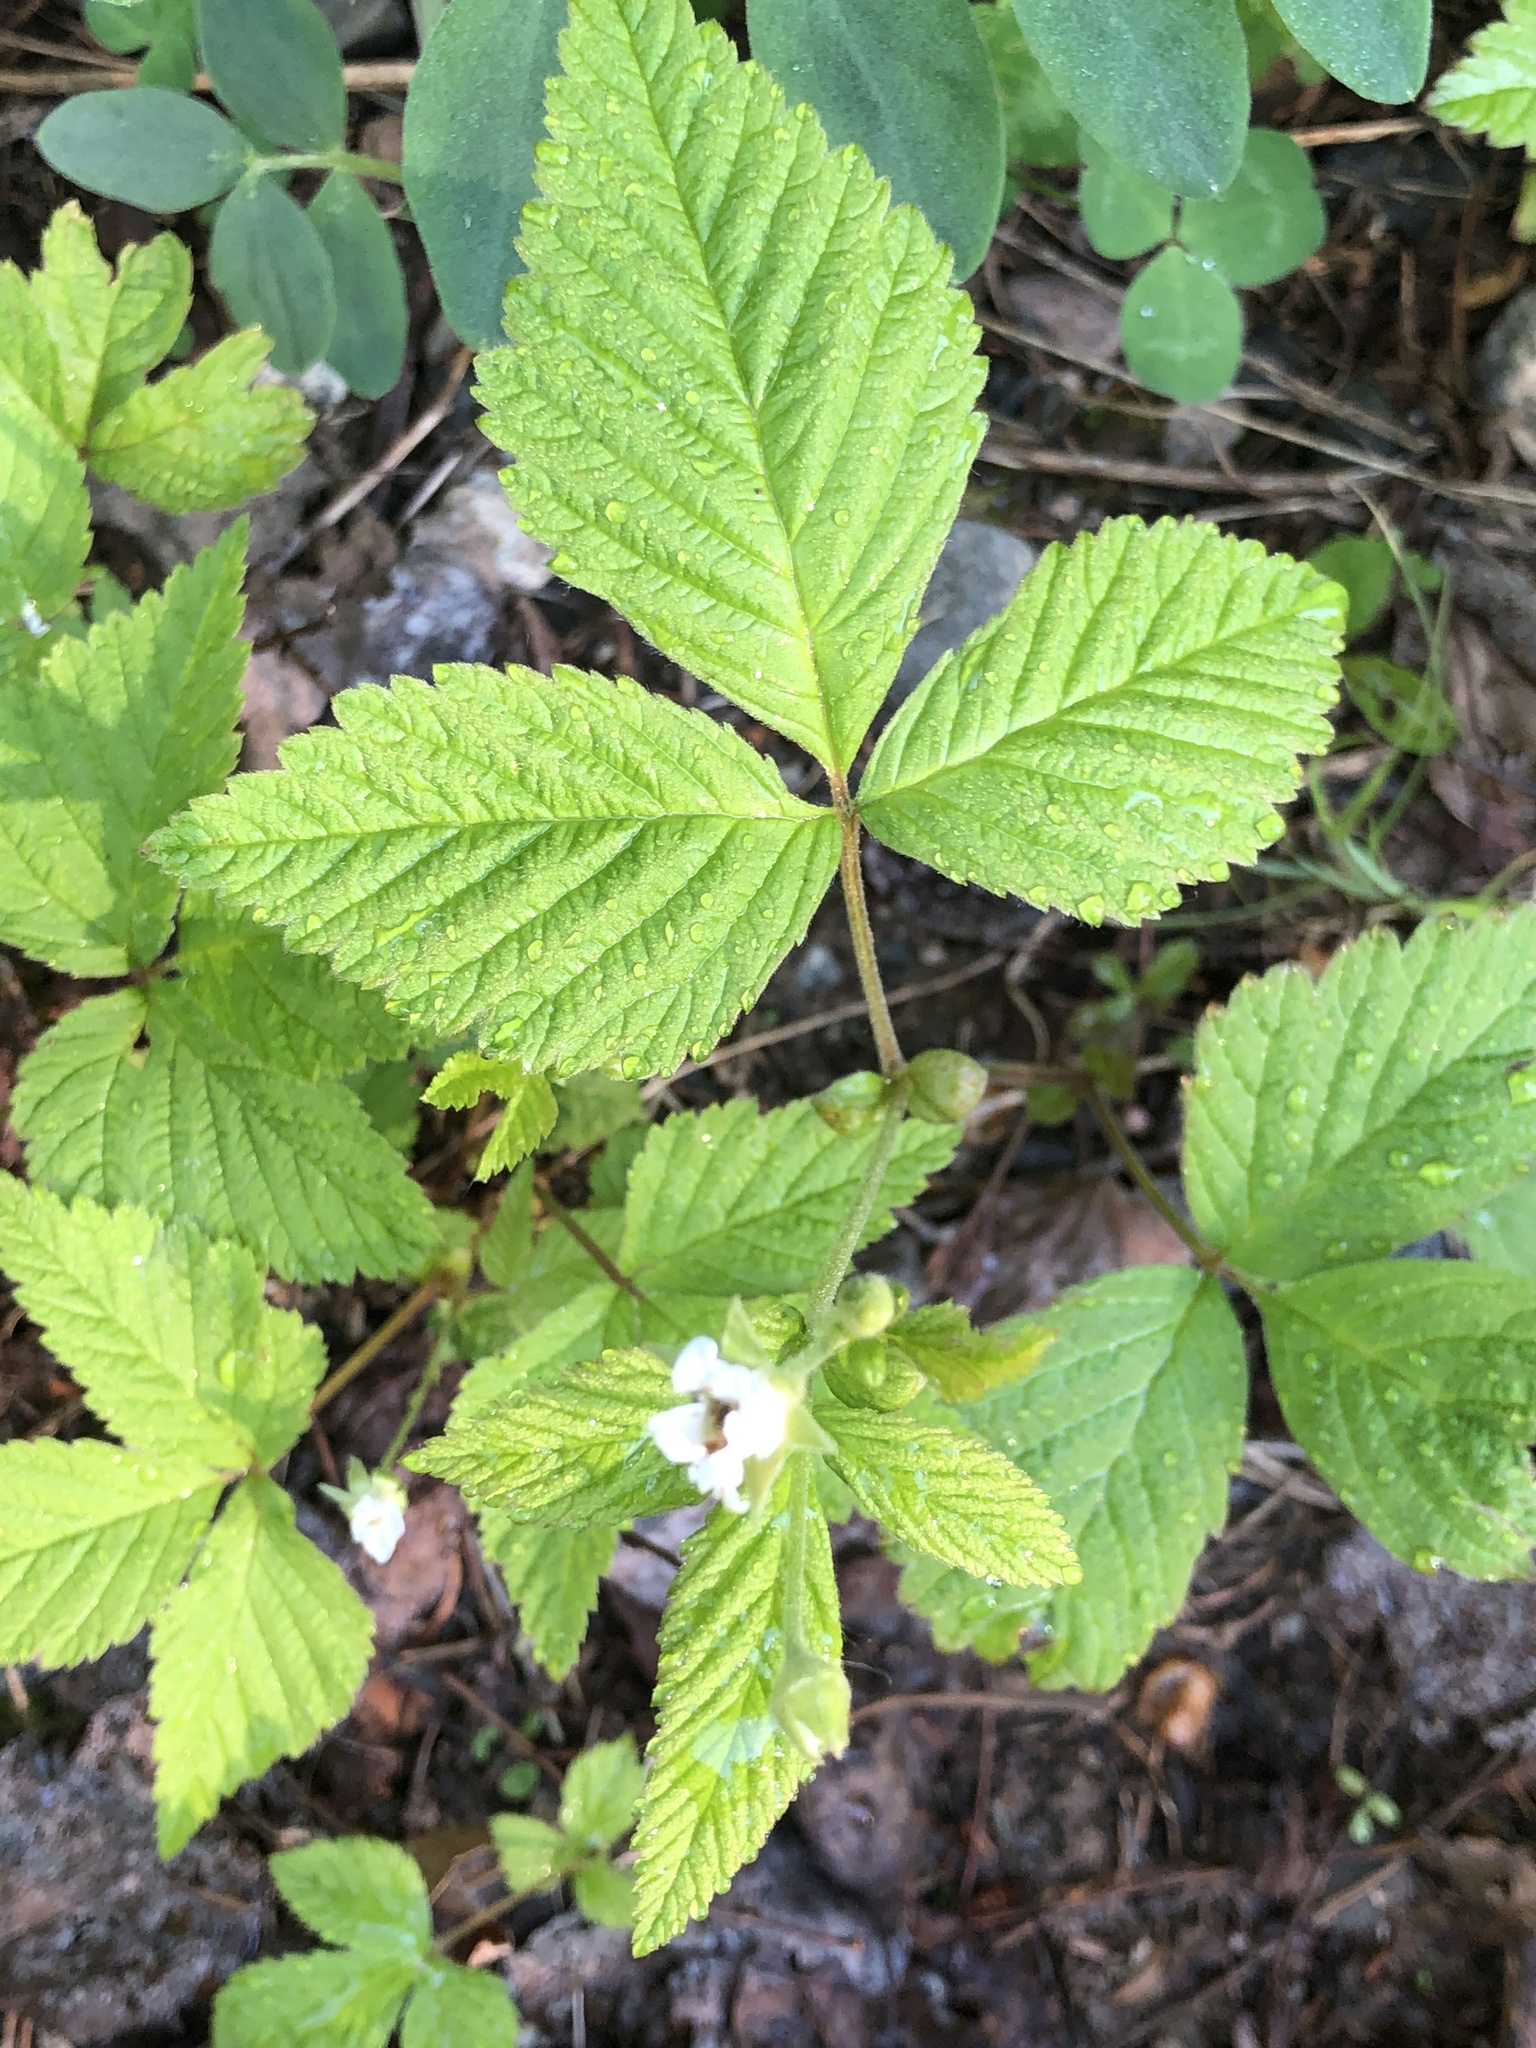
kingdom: Plantae
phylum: Tracheophyta
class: Magnoliopsida
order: Rosales
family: Rosaceae
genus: Rubus
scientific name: Rubus pubescens
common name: Dwarf raspberry
